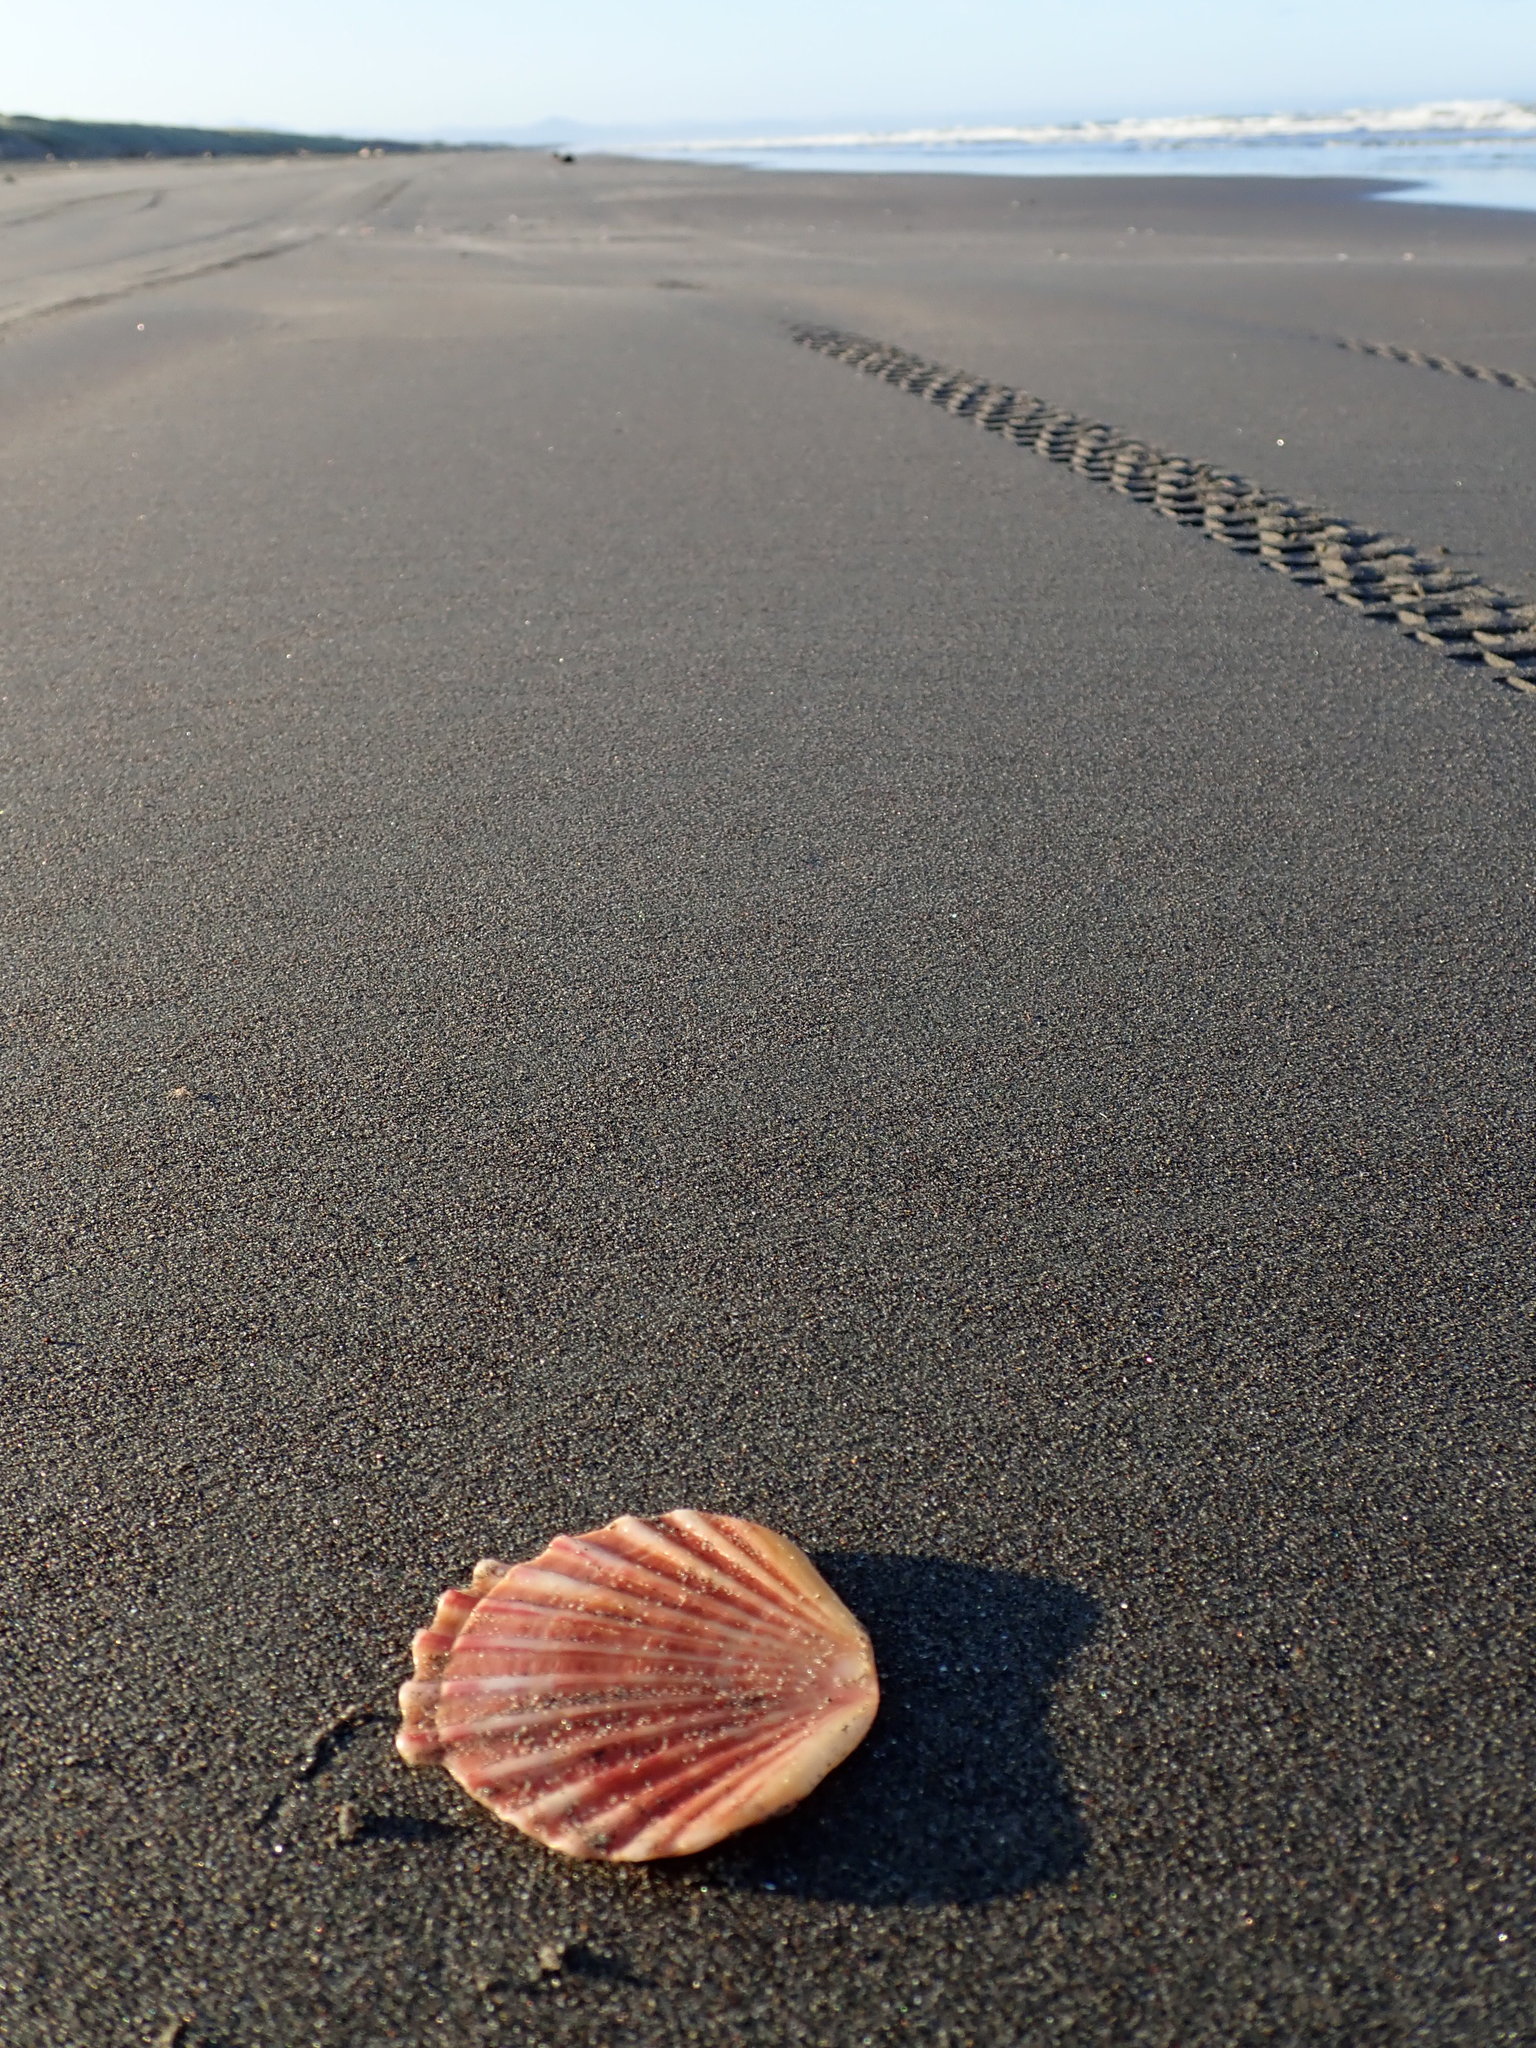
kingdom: Animalia
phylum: Mollusca
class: Bivalvia
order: Pectinida
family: Pectinidae
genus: Pecten
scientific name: Pecten novaezelandiae
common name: New zealand scallop
